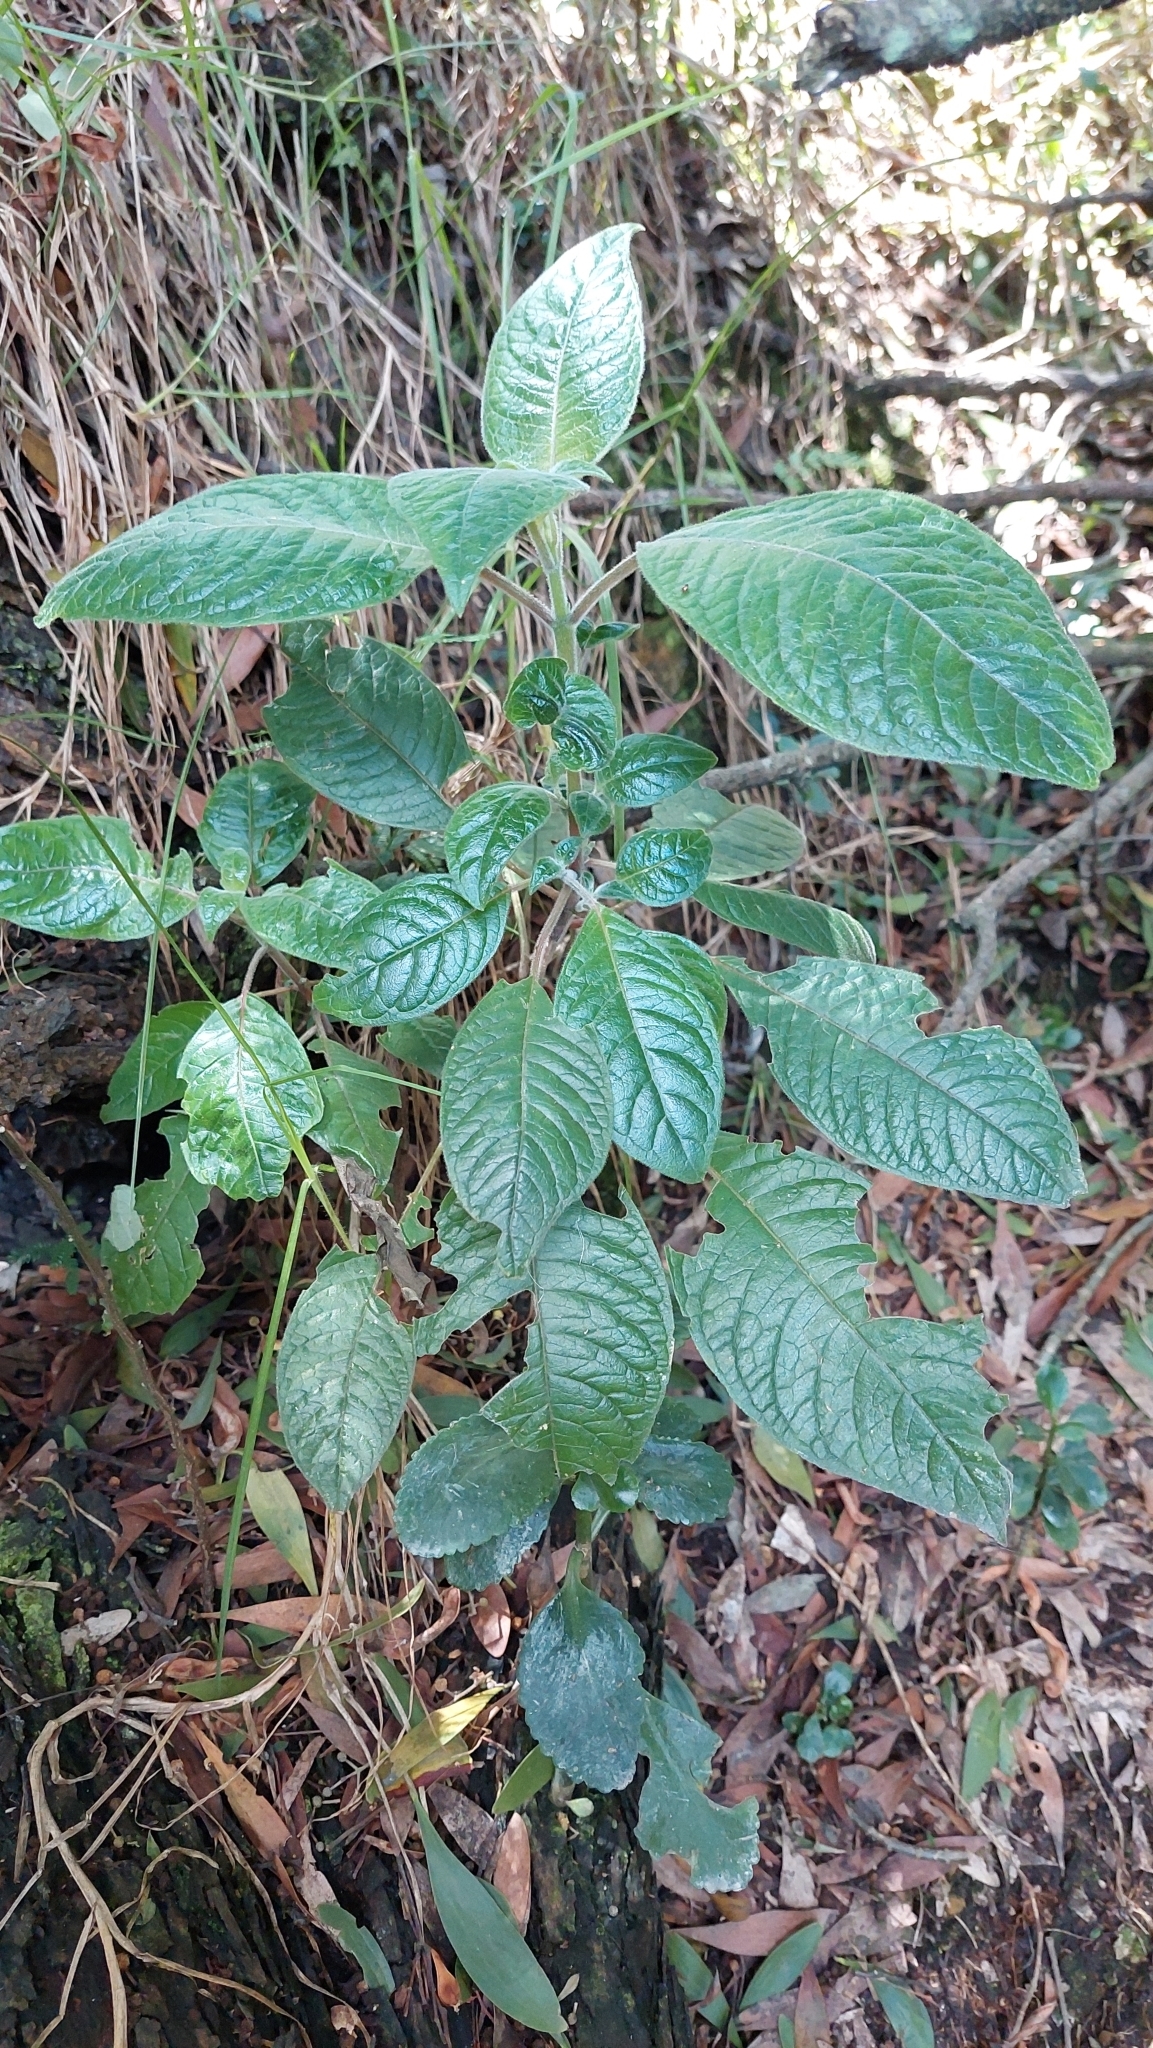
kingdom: Plantae
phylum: Tracheophyta
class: Magnoliopsida
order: Myrtales
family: Onagraceae
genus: Fuchsia
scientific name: Fuchsia boliviana
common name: Bolivian fuchsia
